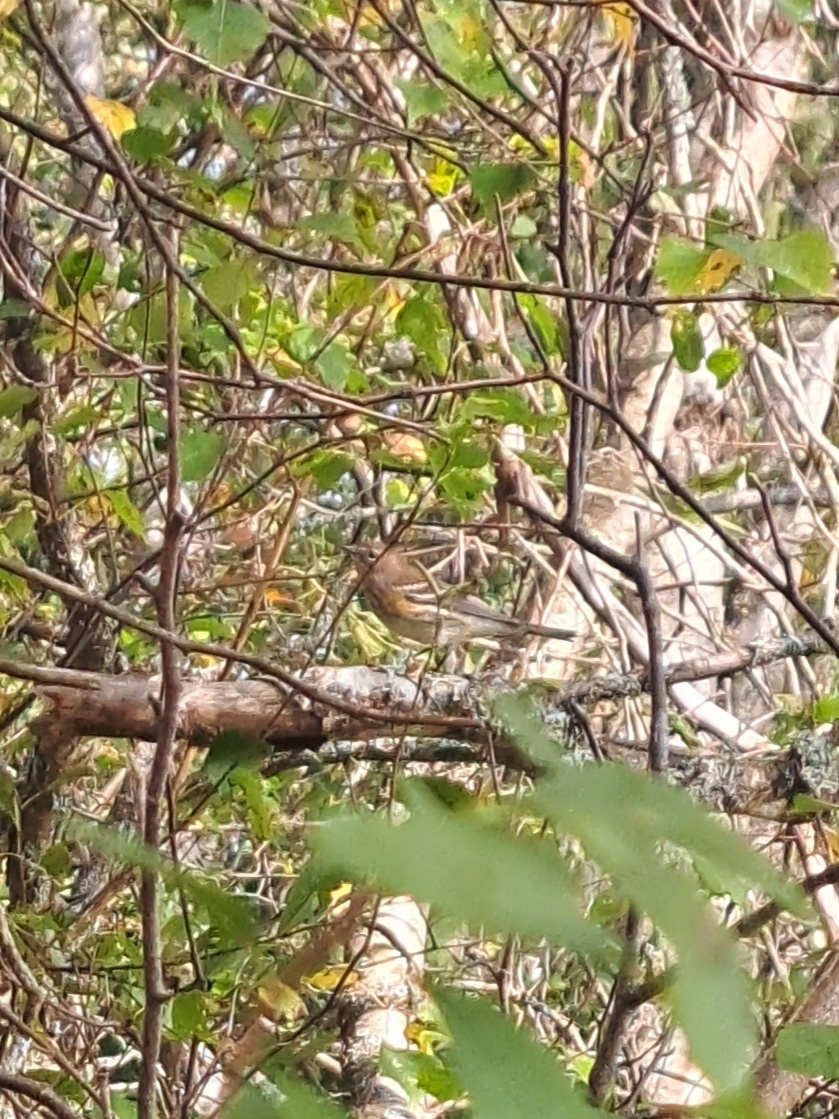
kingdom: Animalia
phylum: Chordata
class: Aves
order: Passeriformes
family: Parulidae
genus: Setophaga
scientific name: Setophaga coronata
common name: Myrtle warbler
